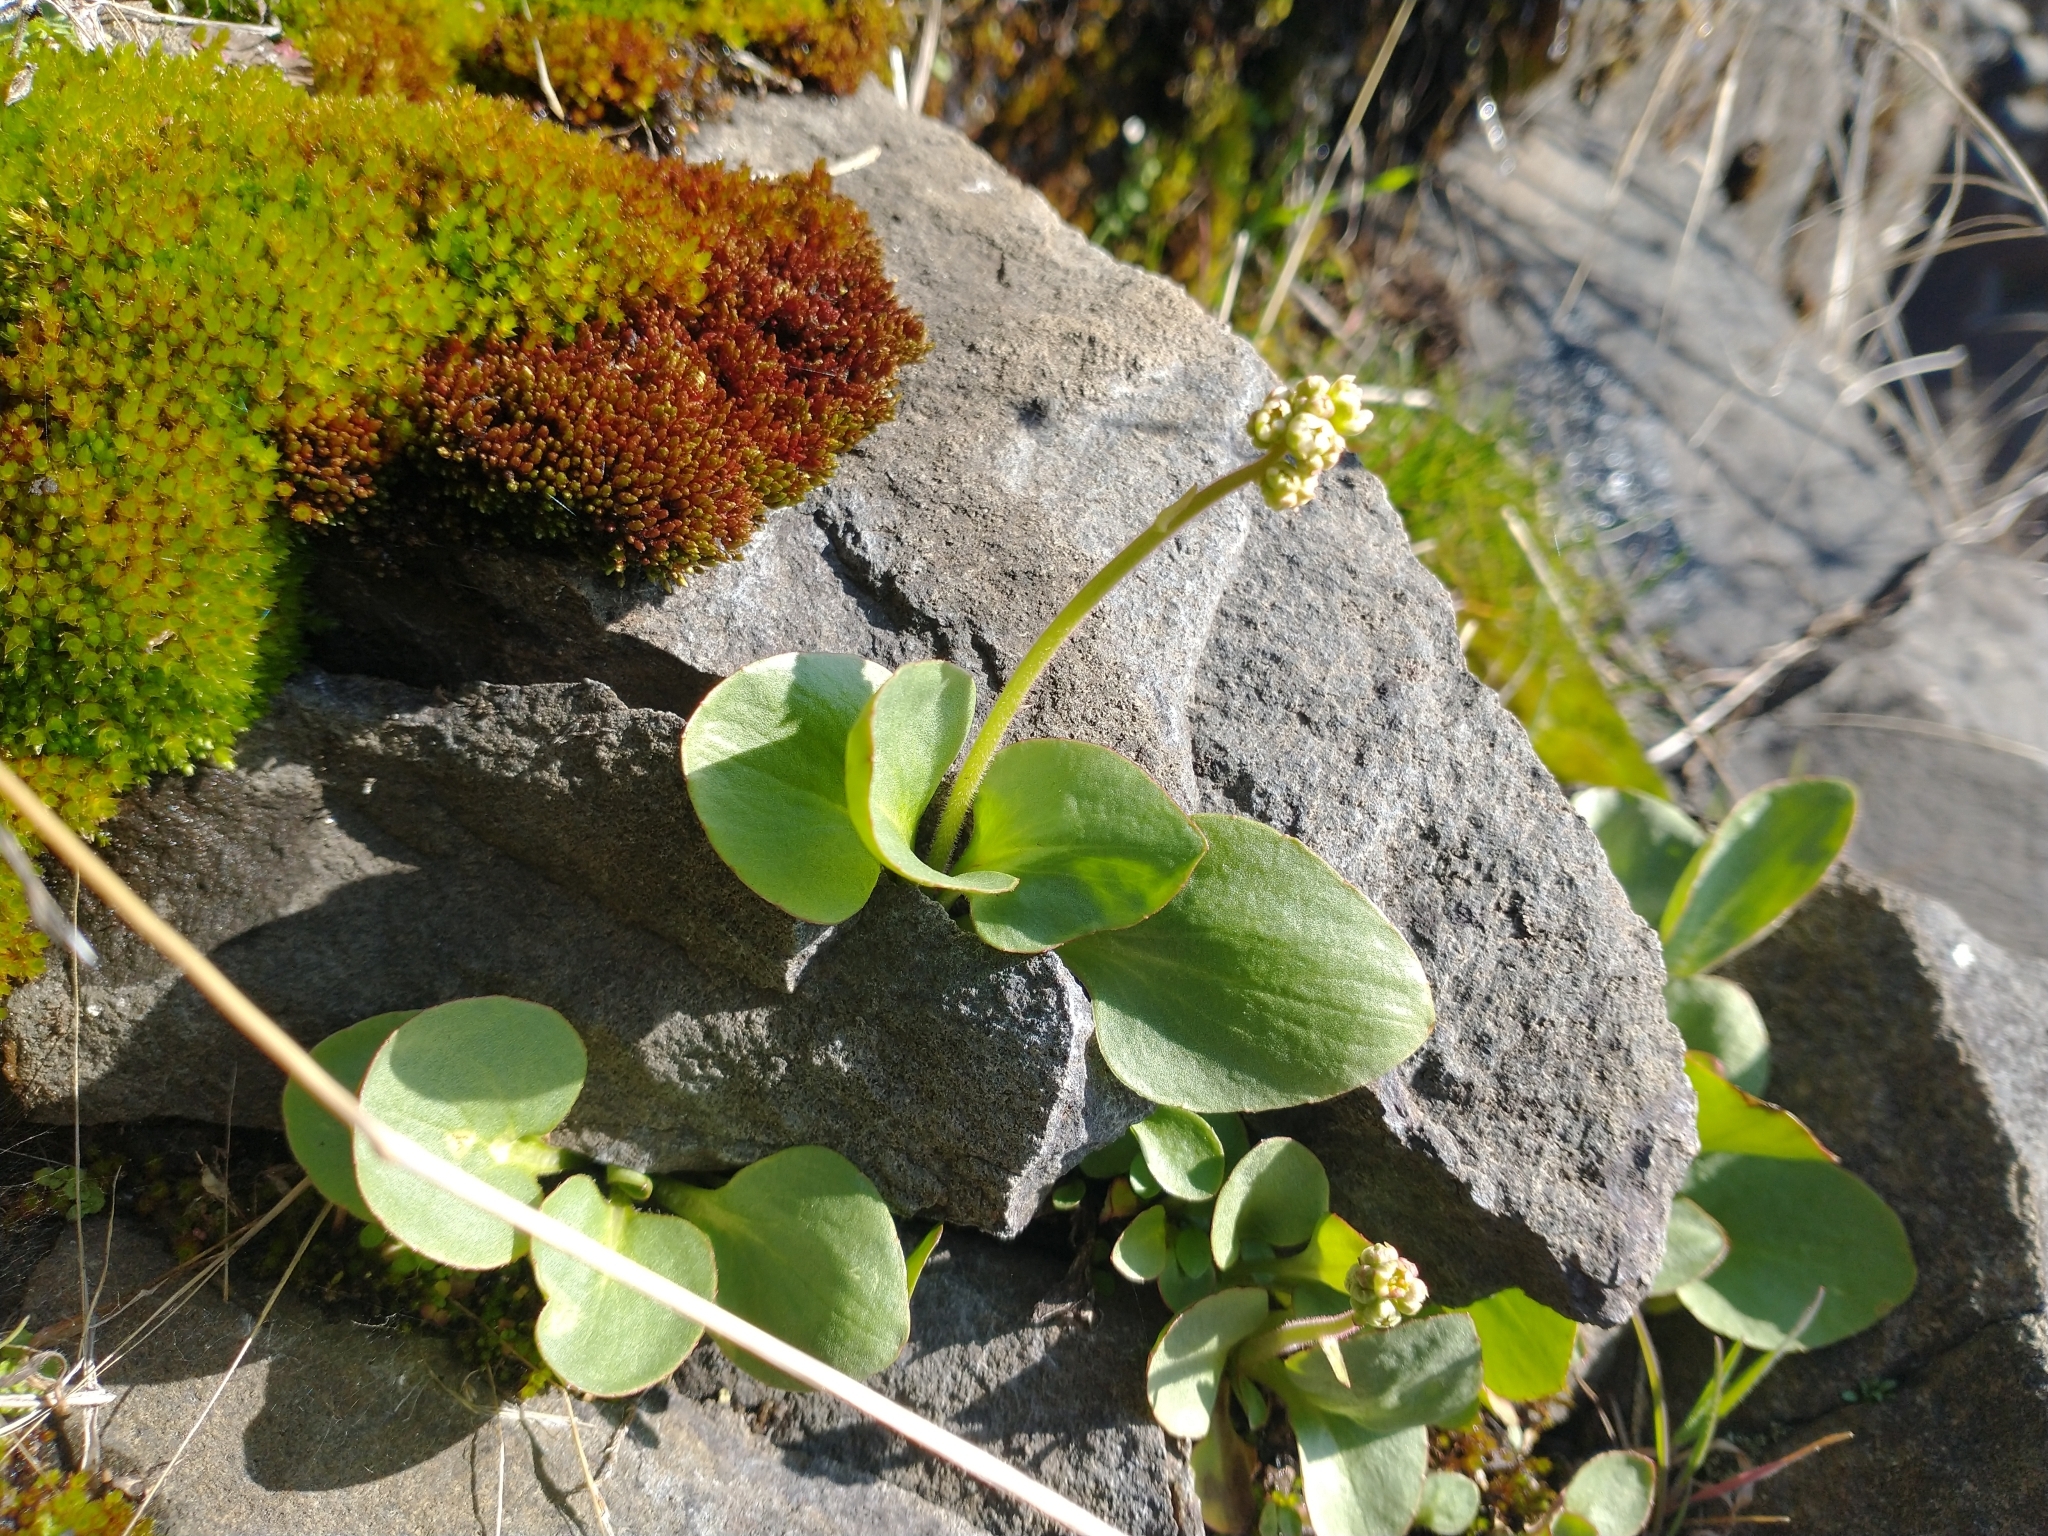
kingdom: Plantae
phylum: Tracheophyta
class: Magnoliopsida
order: Saxifragales
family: Saxifragaceae
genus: Micranthes
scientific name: Micranthes fragosa
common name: Peak saxifrage
